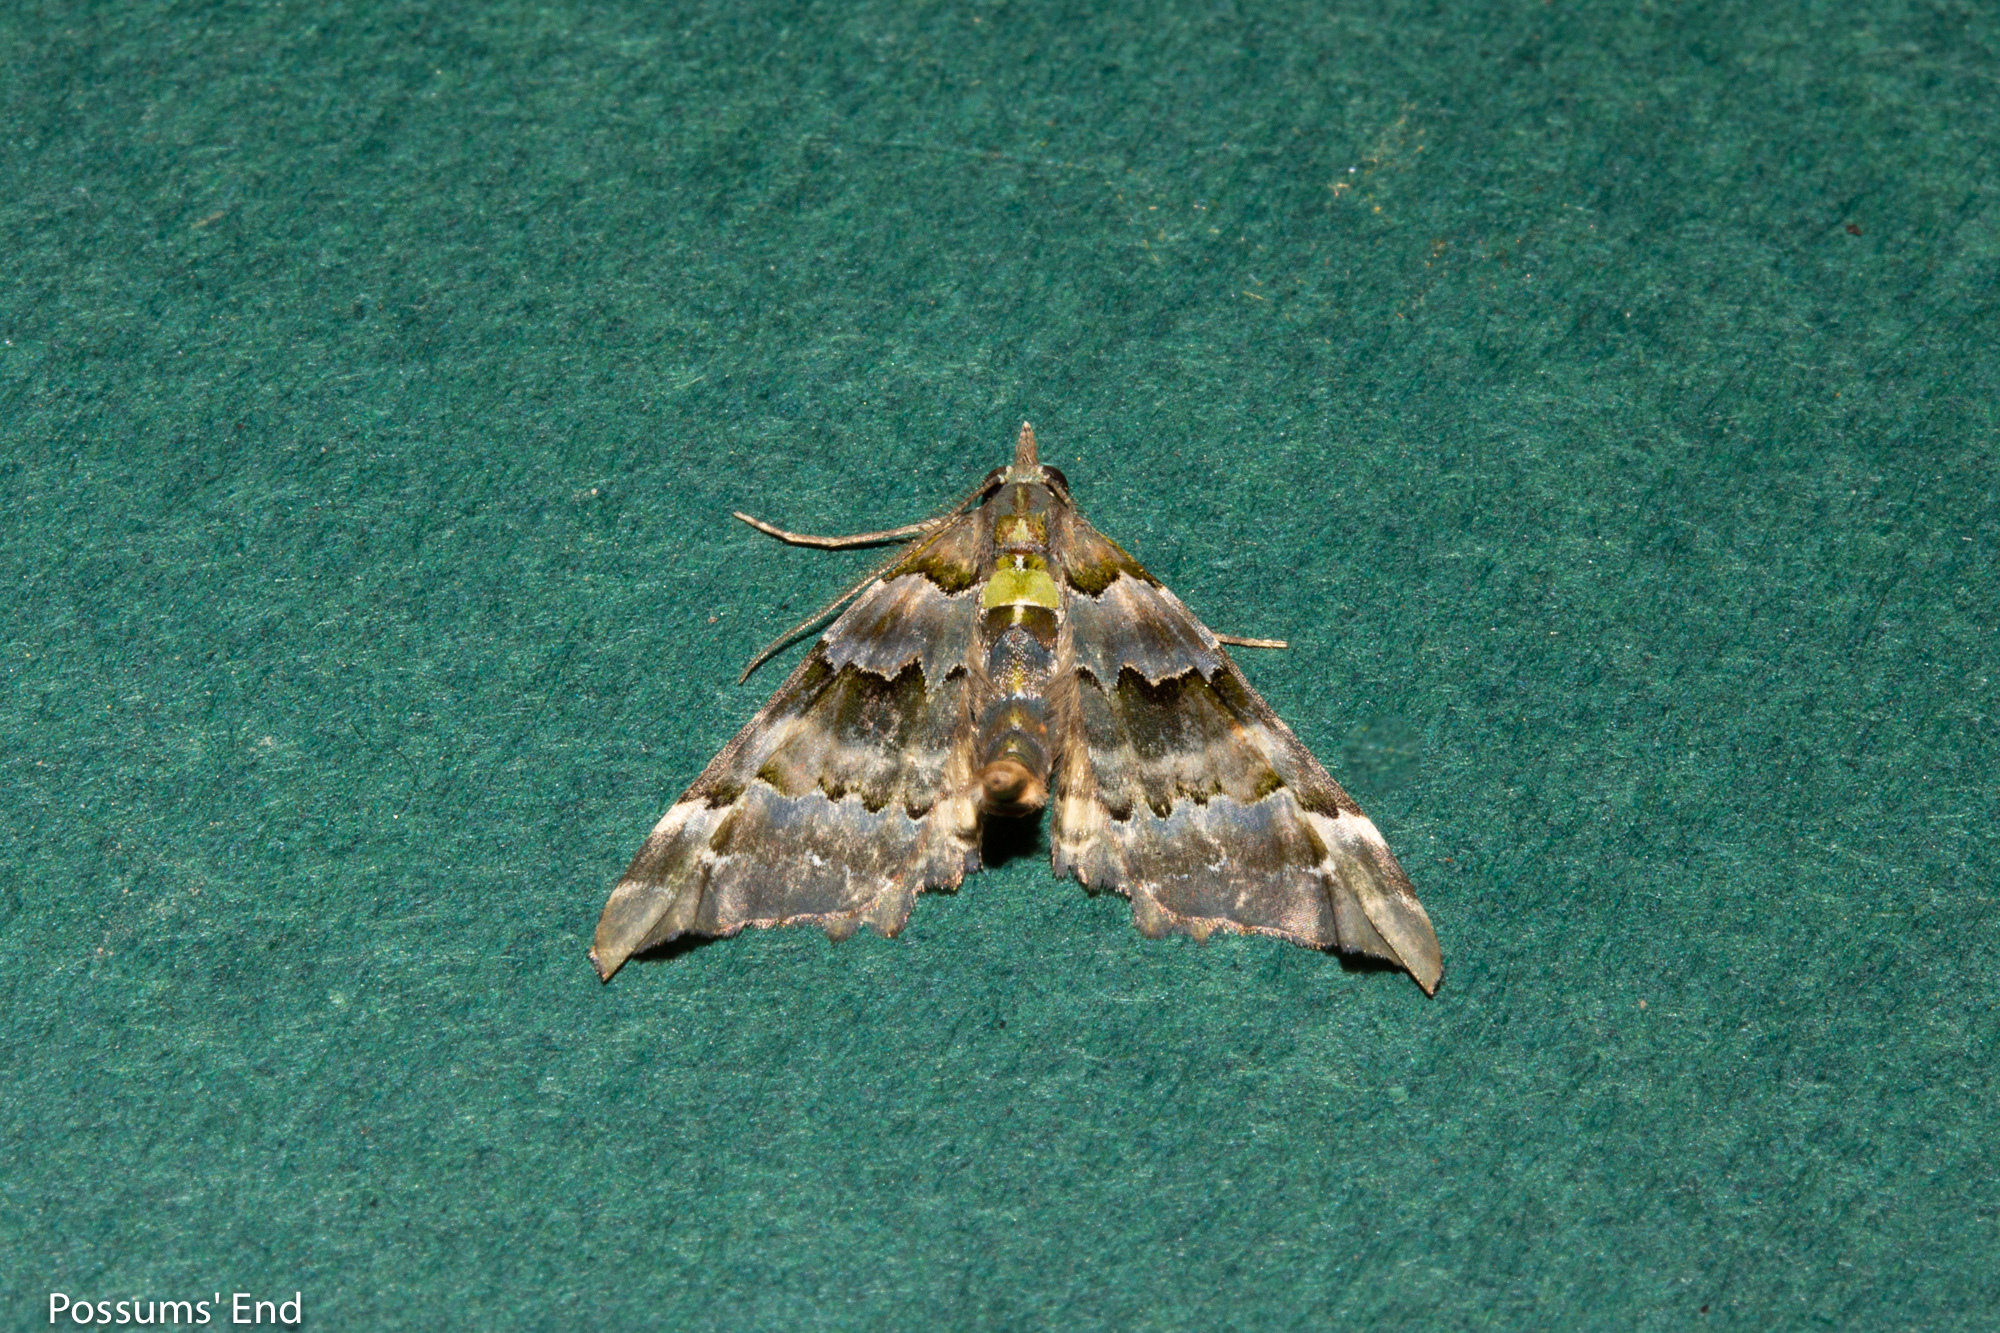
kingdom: Animalia
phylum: Arthropoda
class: Insecta
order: Lepidoptera
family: Geometridae
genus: Elvia
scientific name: Elvia glaucata
